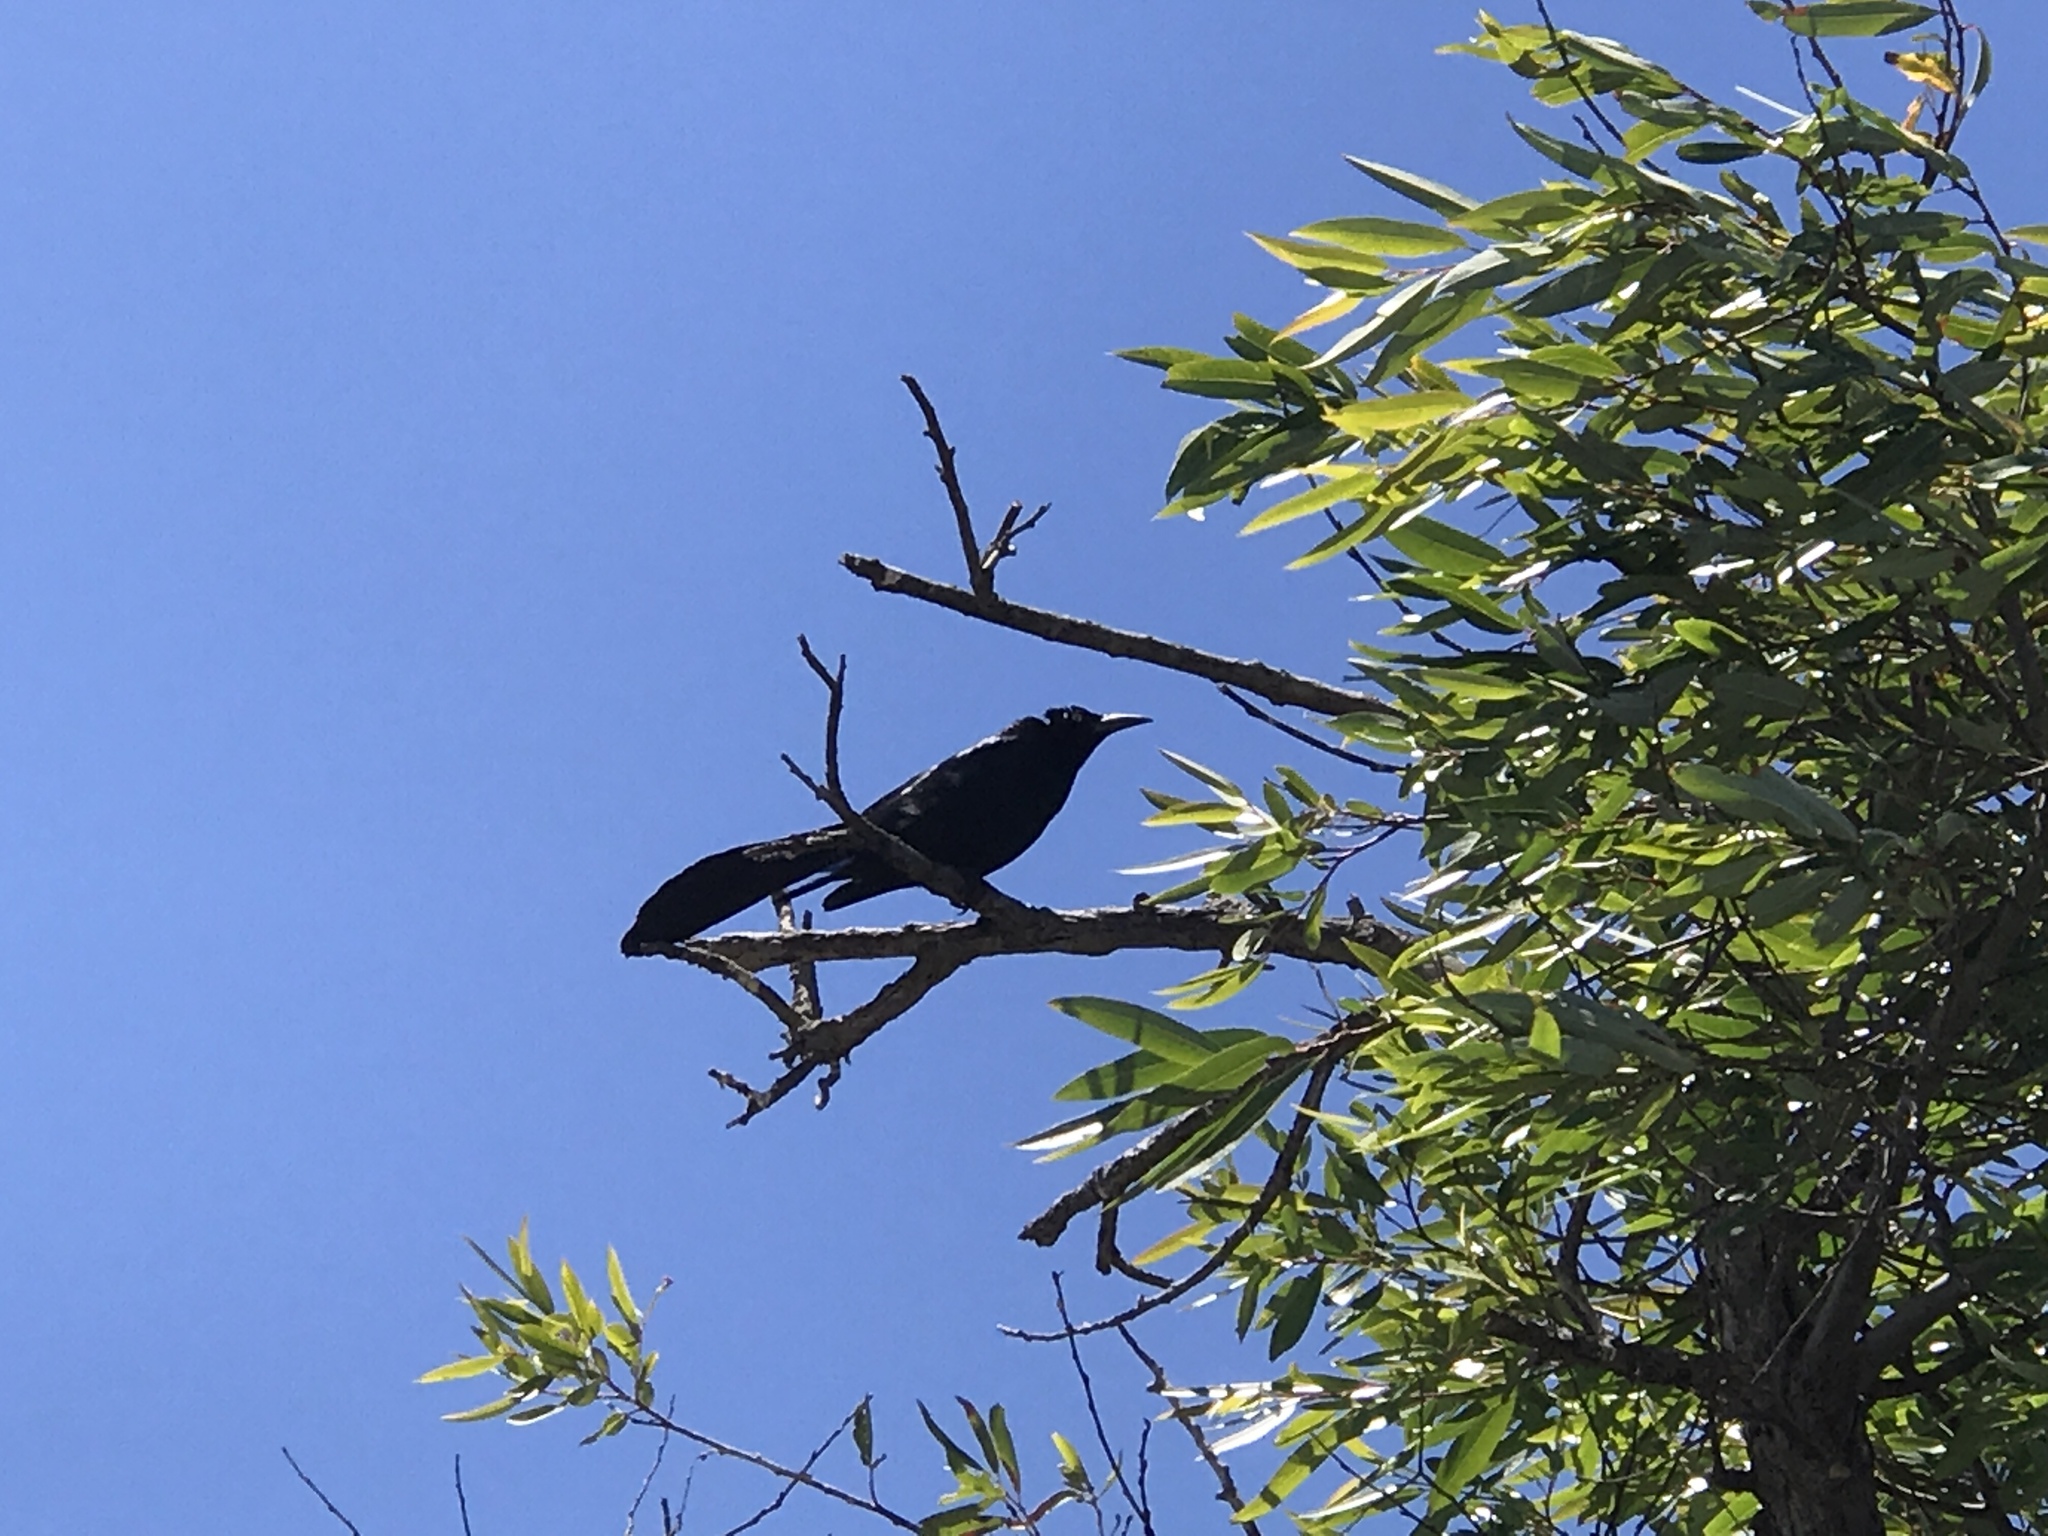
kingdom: Animalia
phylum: Chordata
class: Aves
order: Passeriformes
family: Icteridae
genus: Quiscalus
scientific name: Quiscalus mexicanus
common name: Great-tailed grackle
